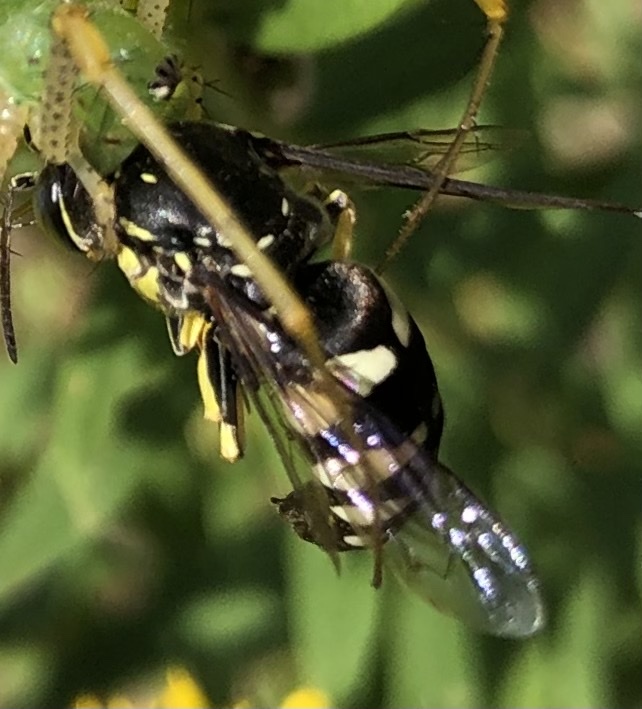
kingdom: Animalia
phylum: Arthropoda
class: Insecta
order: Hymenoptera
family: Crabronidae
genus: Bicyrtes
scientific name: Bicyrtes quadrifasciatus
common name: Four-banded stink bug hunter wasp
